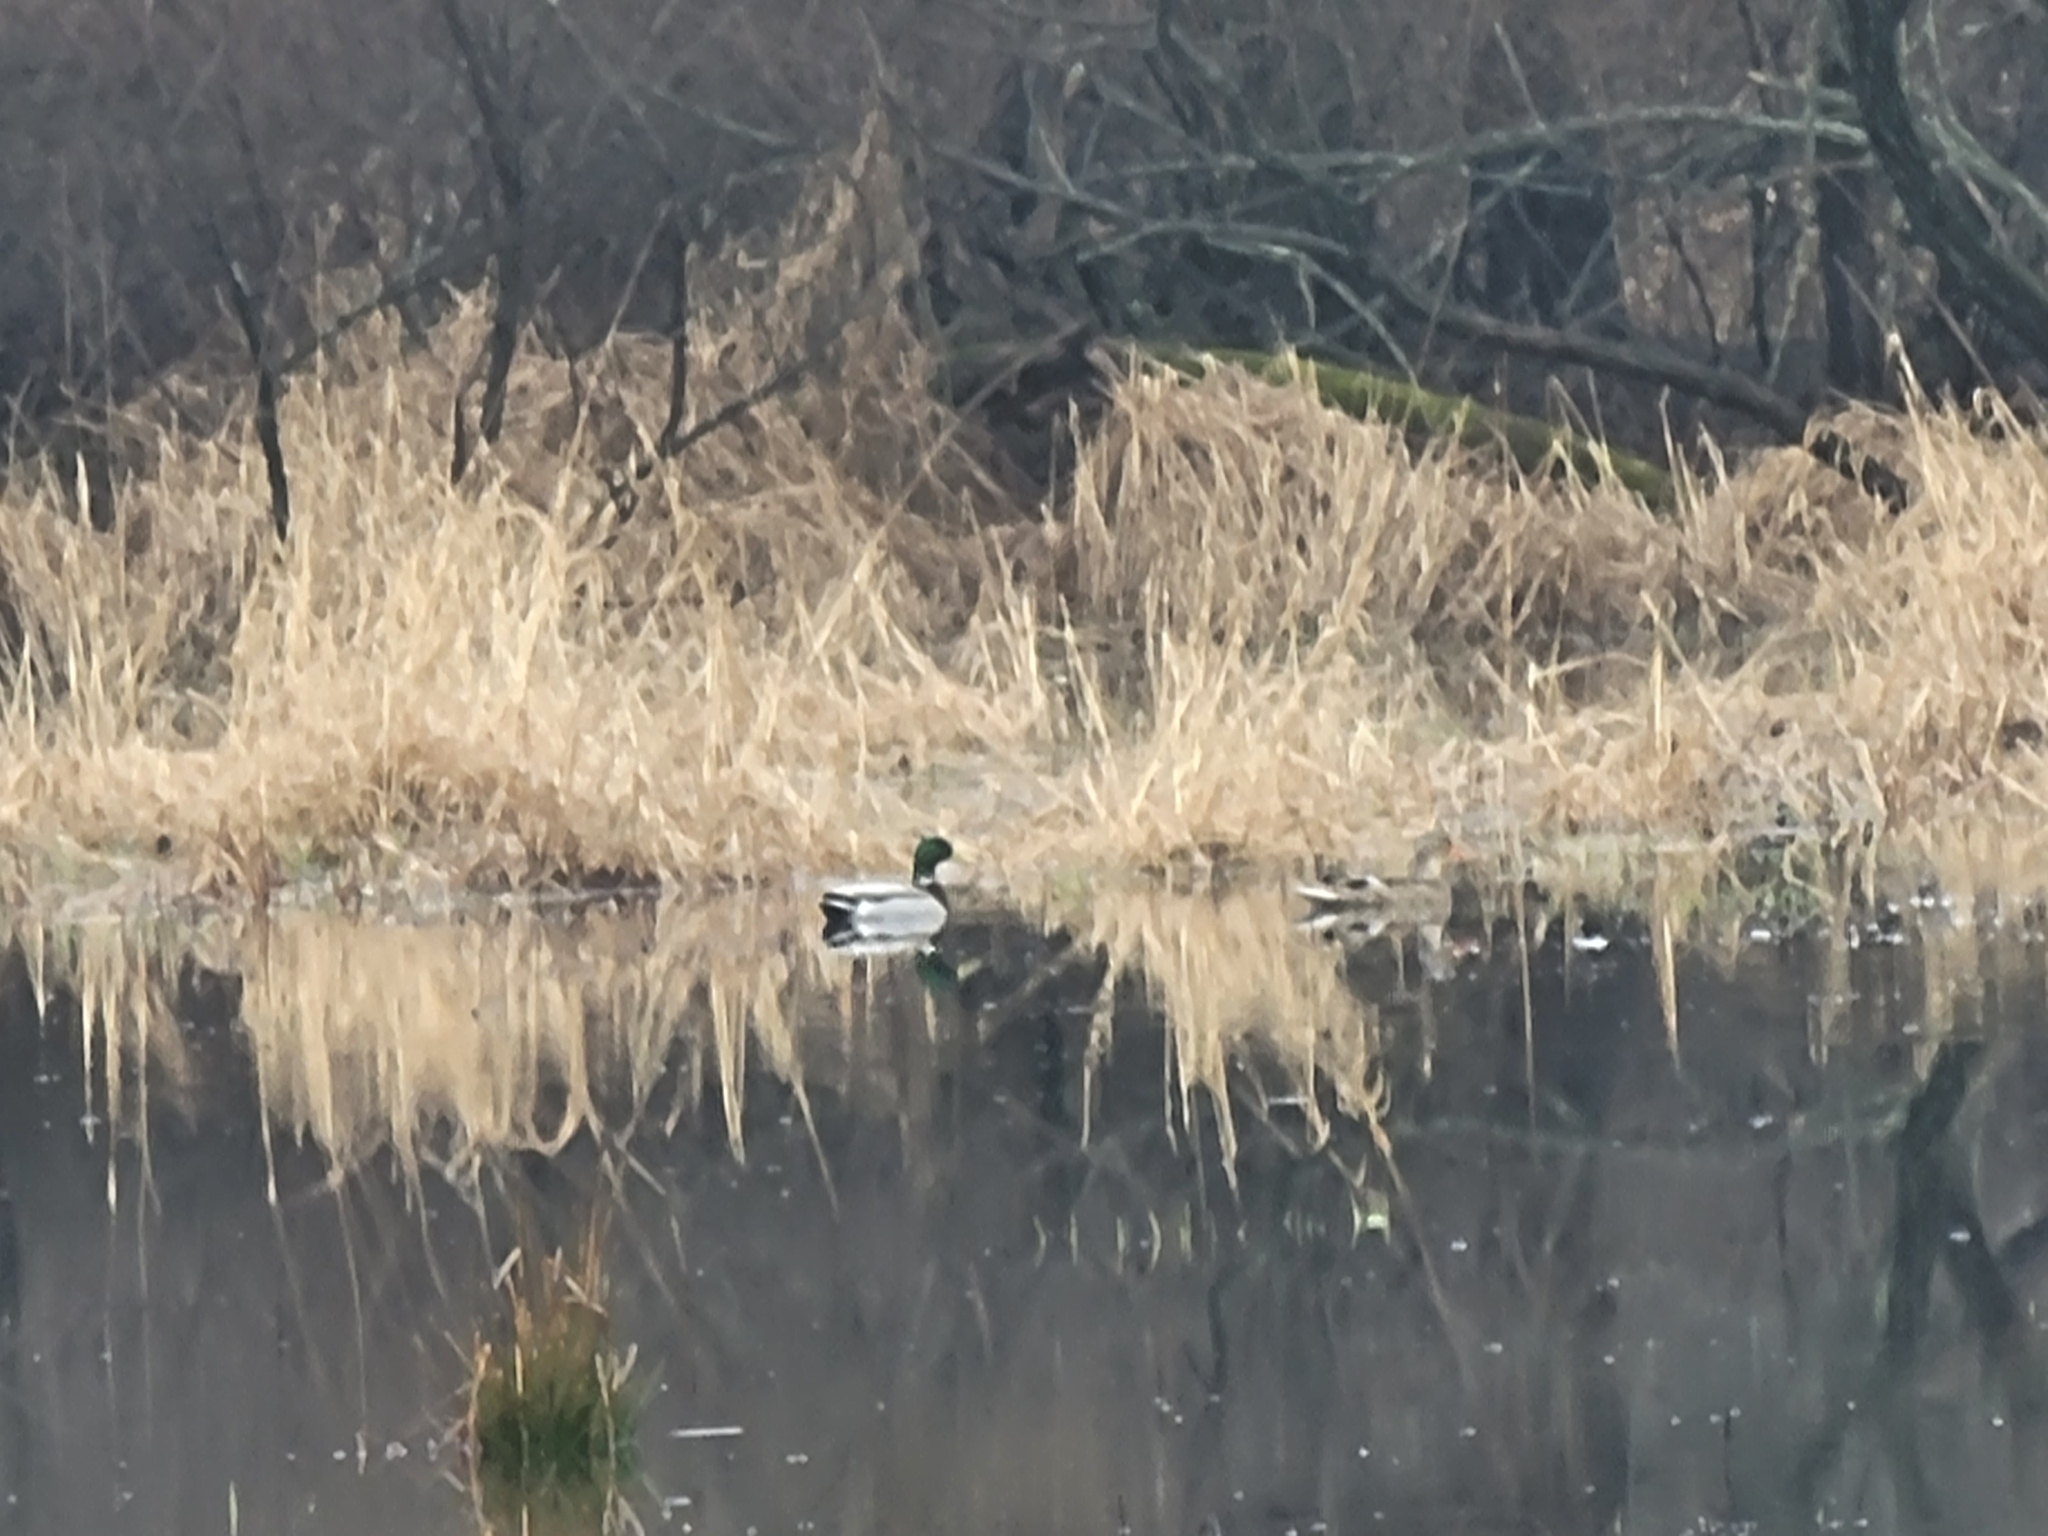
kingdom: Animalia
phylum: Chordata
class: Aves
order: Anseriformes
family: Anatidae
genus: Anas
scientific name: Anas platyrhynchos
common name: Mallard
